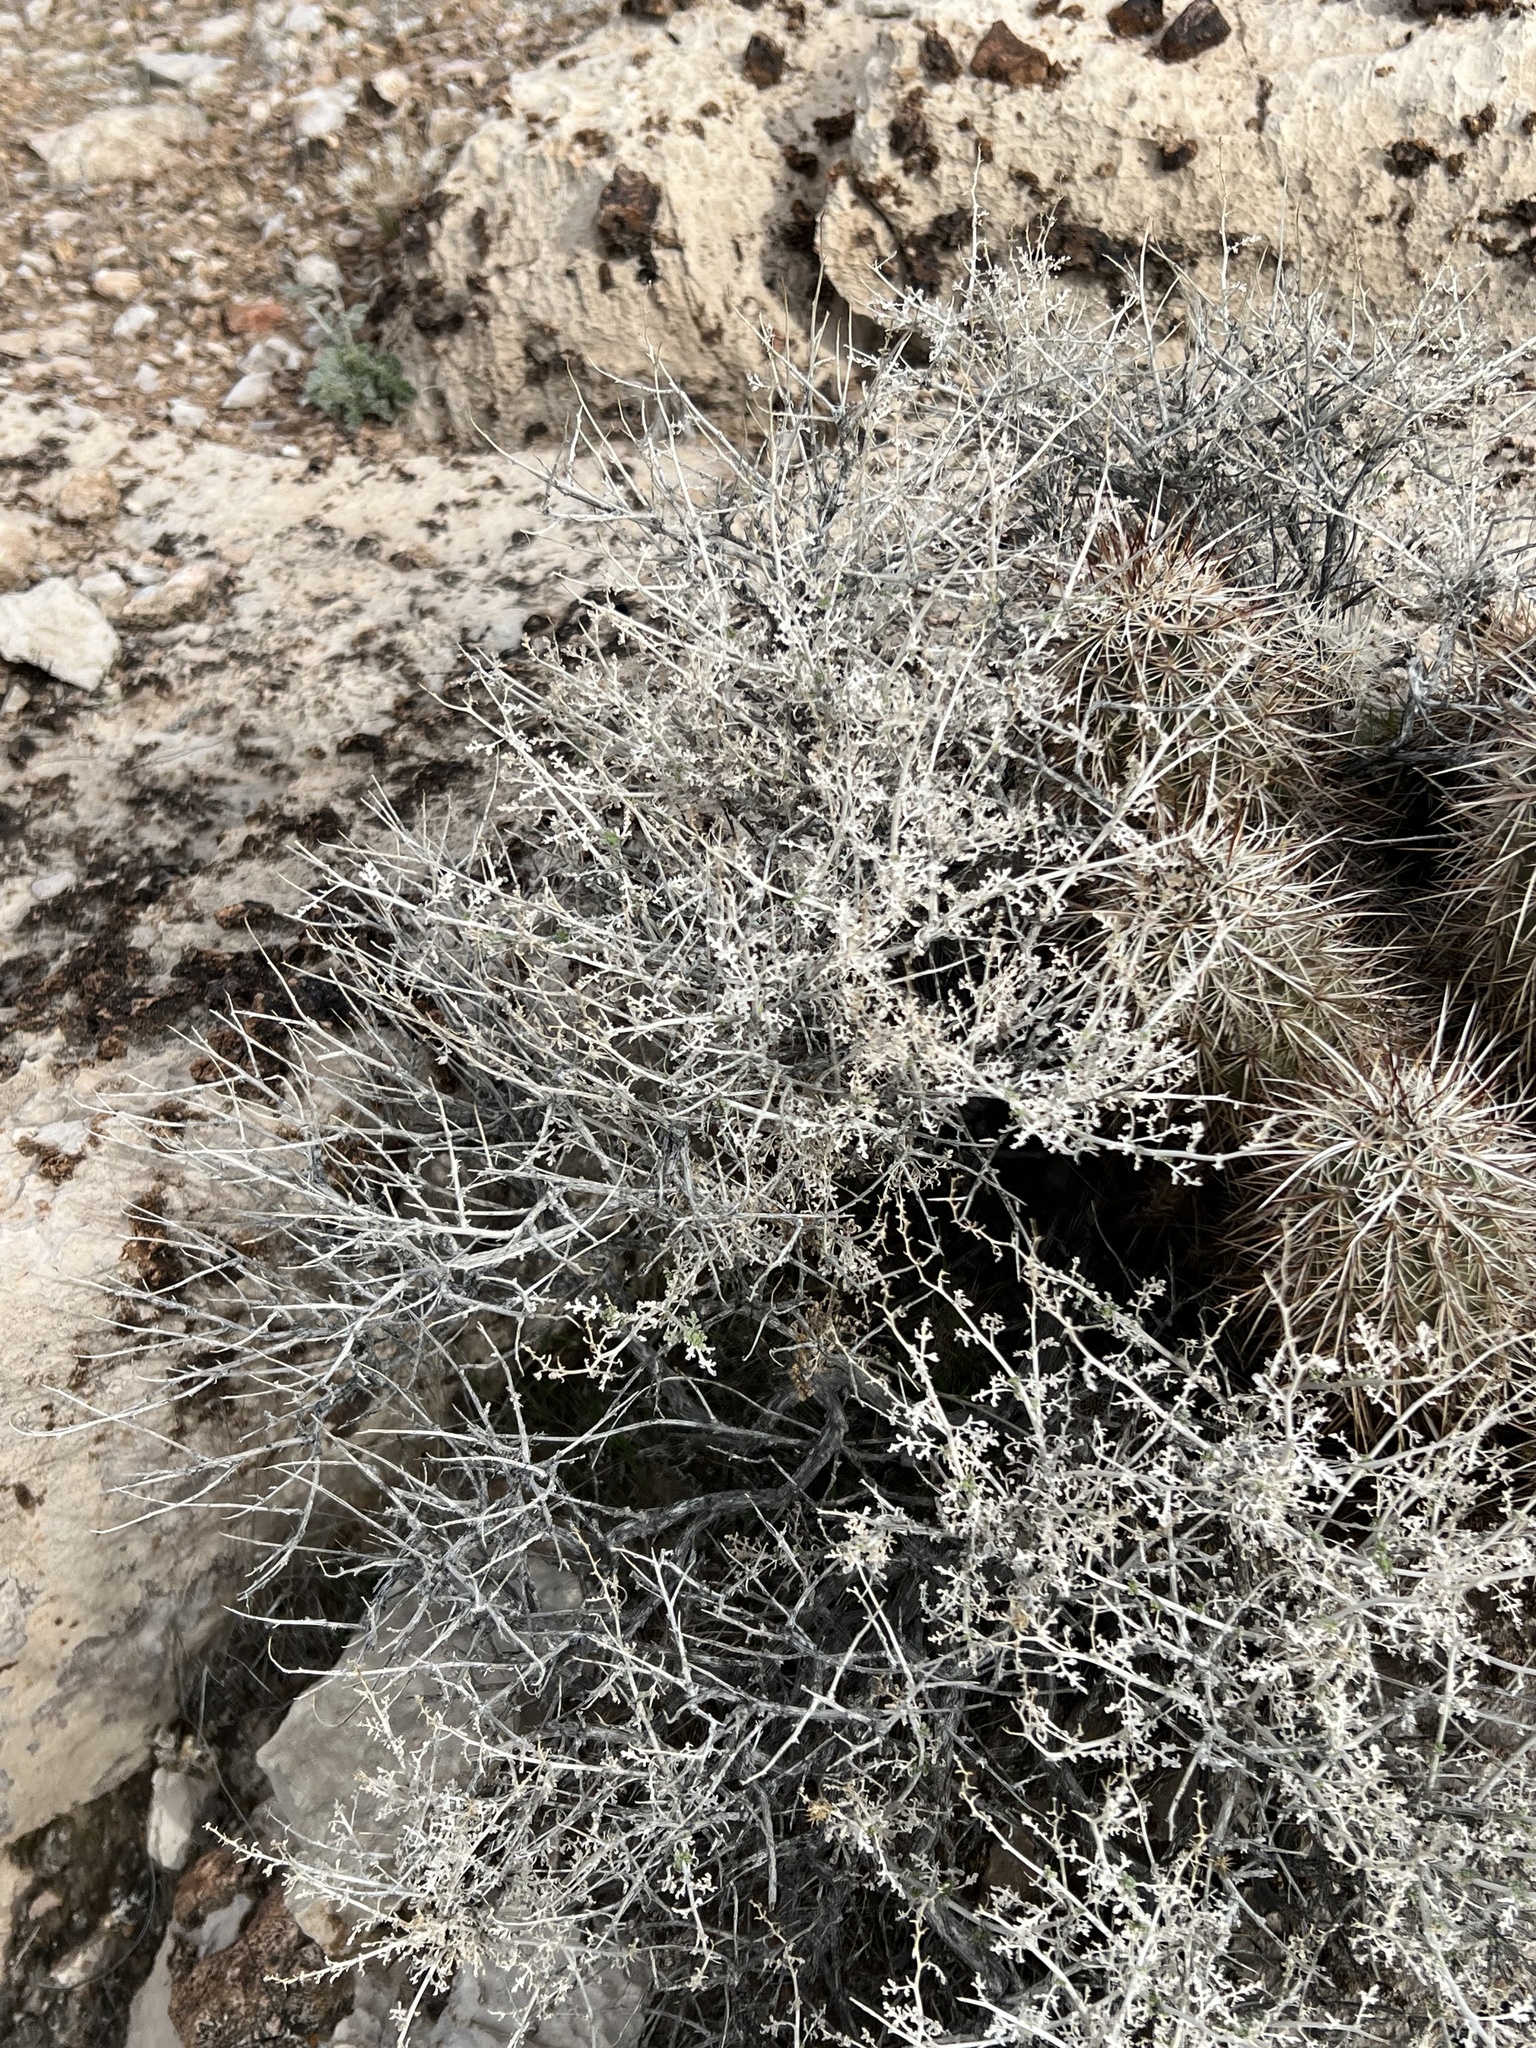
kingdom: Plantae
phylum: Tracheophyta
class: Magnoliopsida
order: Asterales
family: Asteraceae
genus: Ambrosia
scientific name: Ambrosia dumosa
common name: Bur-sage
